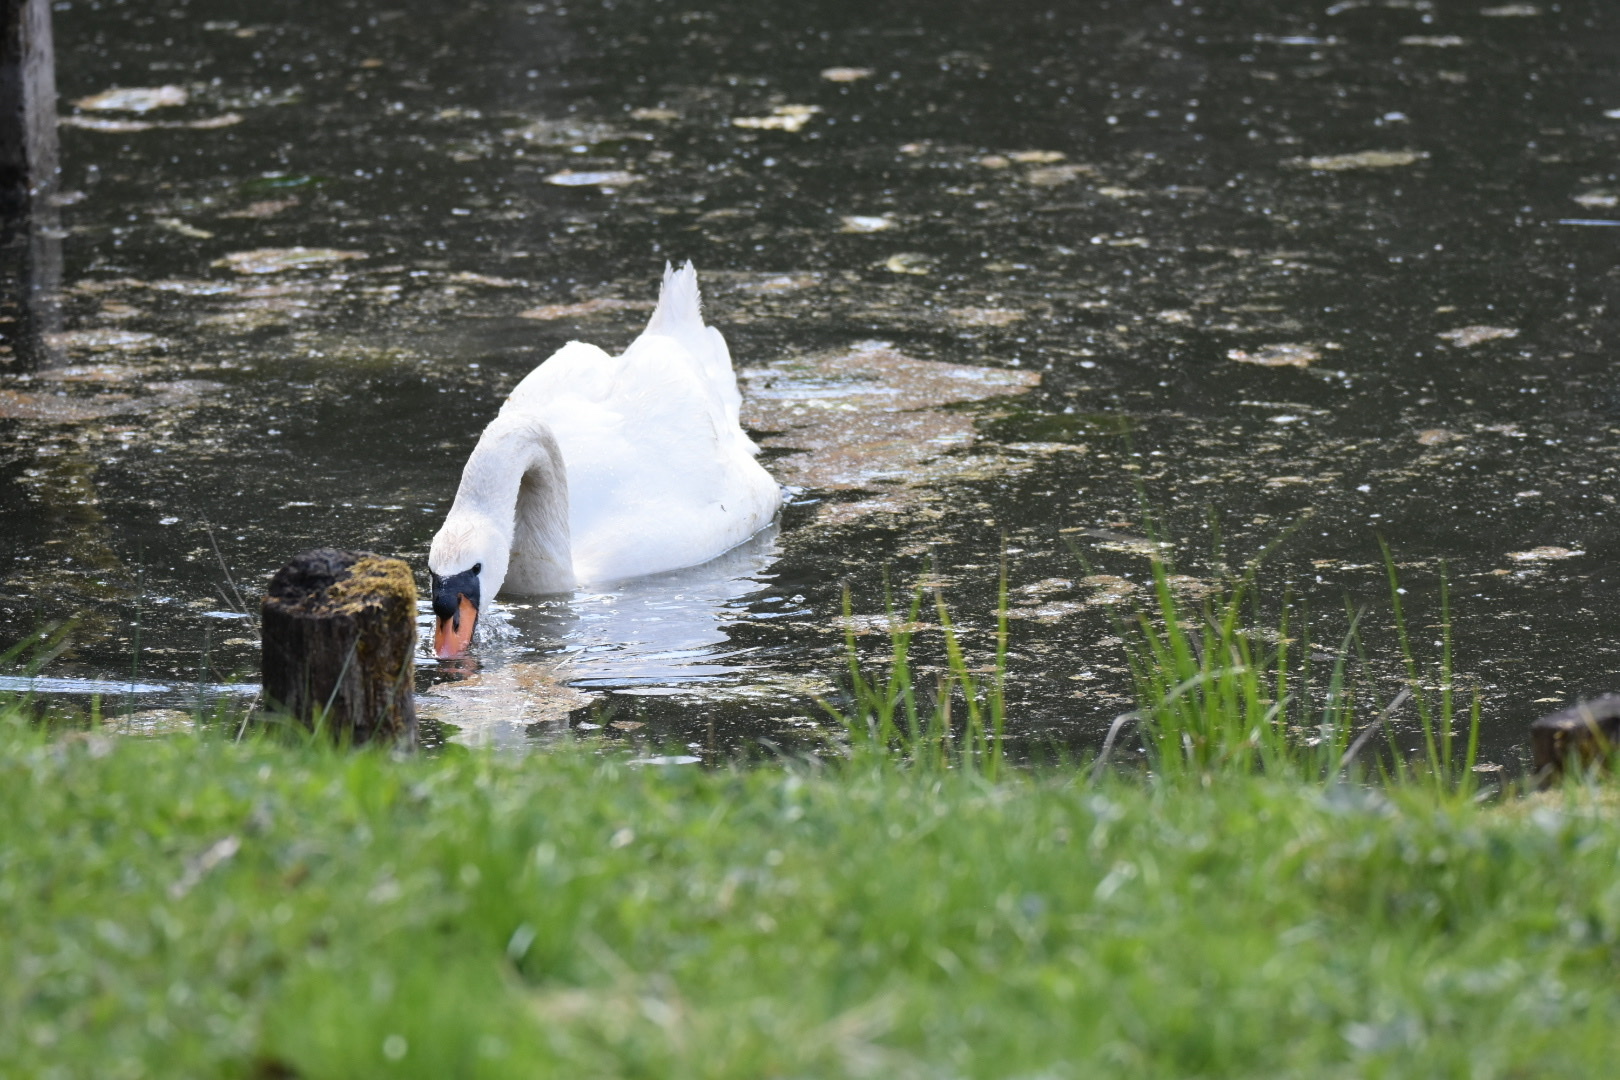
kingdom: Animalia
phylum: Chordata
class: Aves
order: Anseriformes
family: Anatidae
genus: Cygnus
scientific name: Cygnus olor
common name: Mute swan
